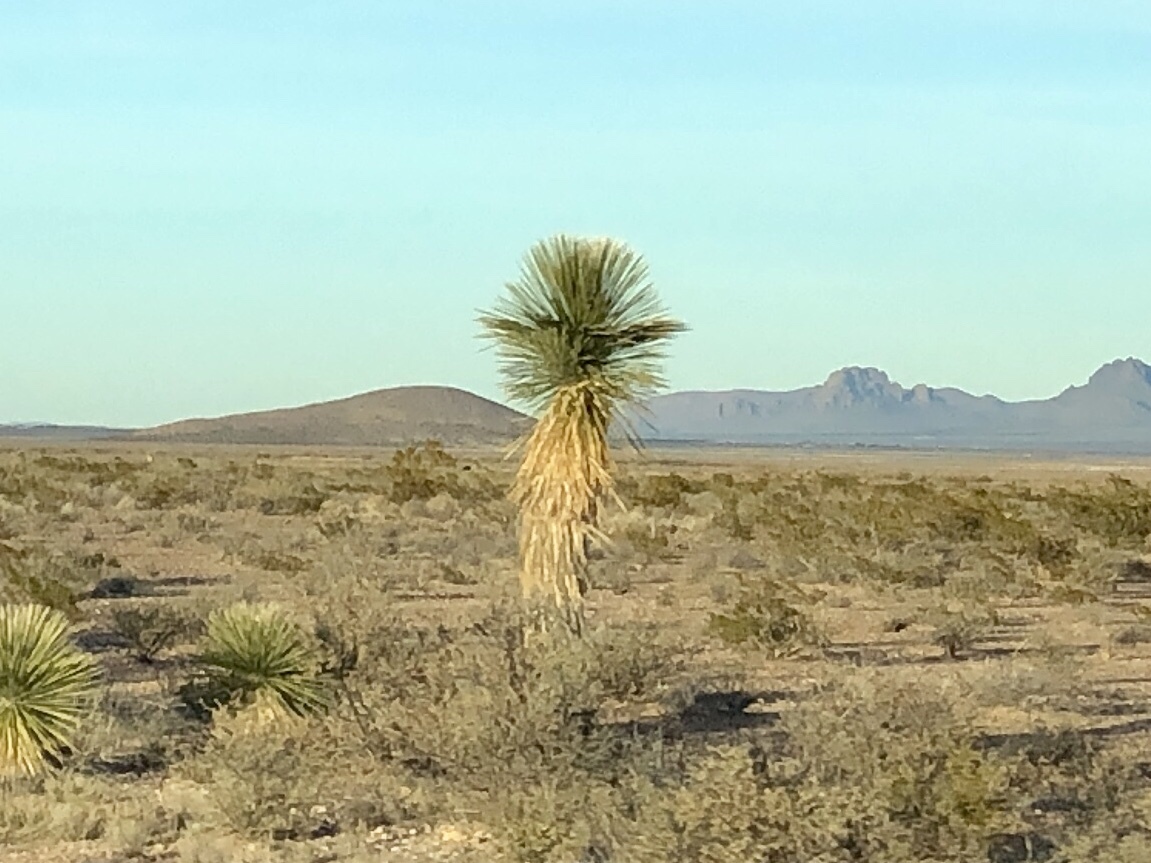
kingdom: Plantae
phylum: Tracheophyta
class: Liliopsida
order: Asparagales
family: Asparagaceae
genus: Yucca
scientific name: Yucca elata
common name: Palmella
